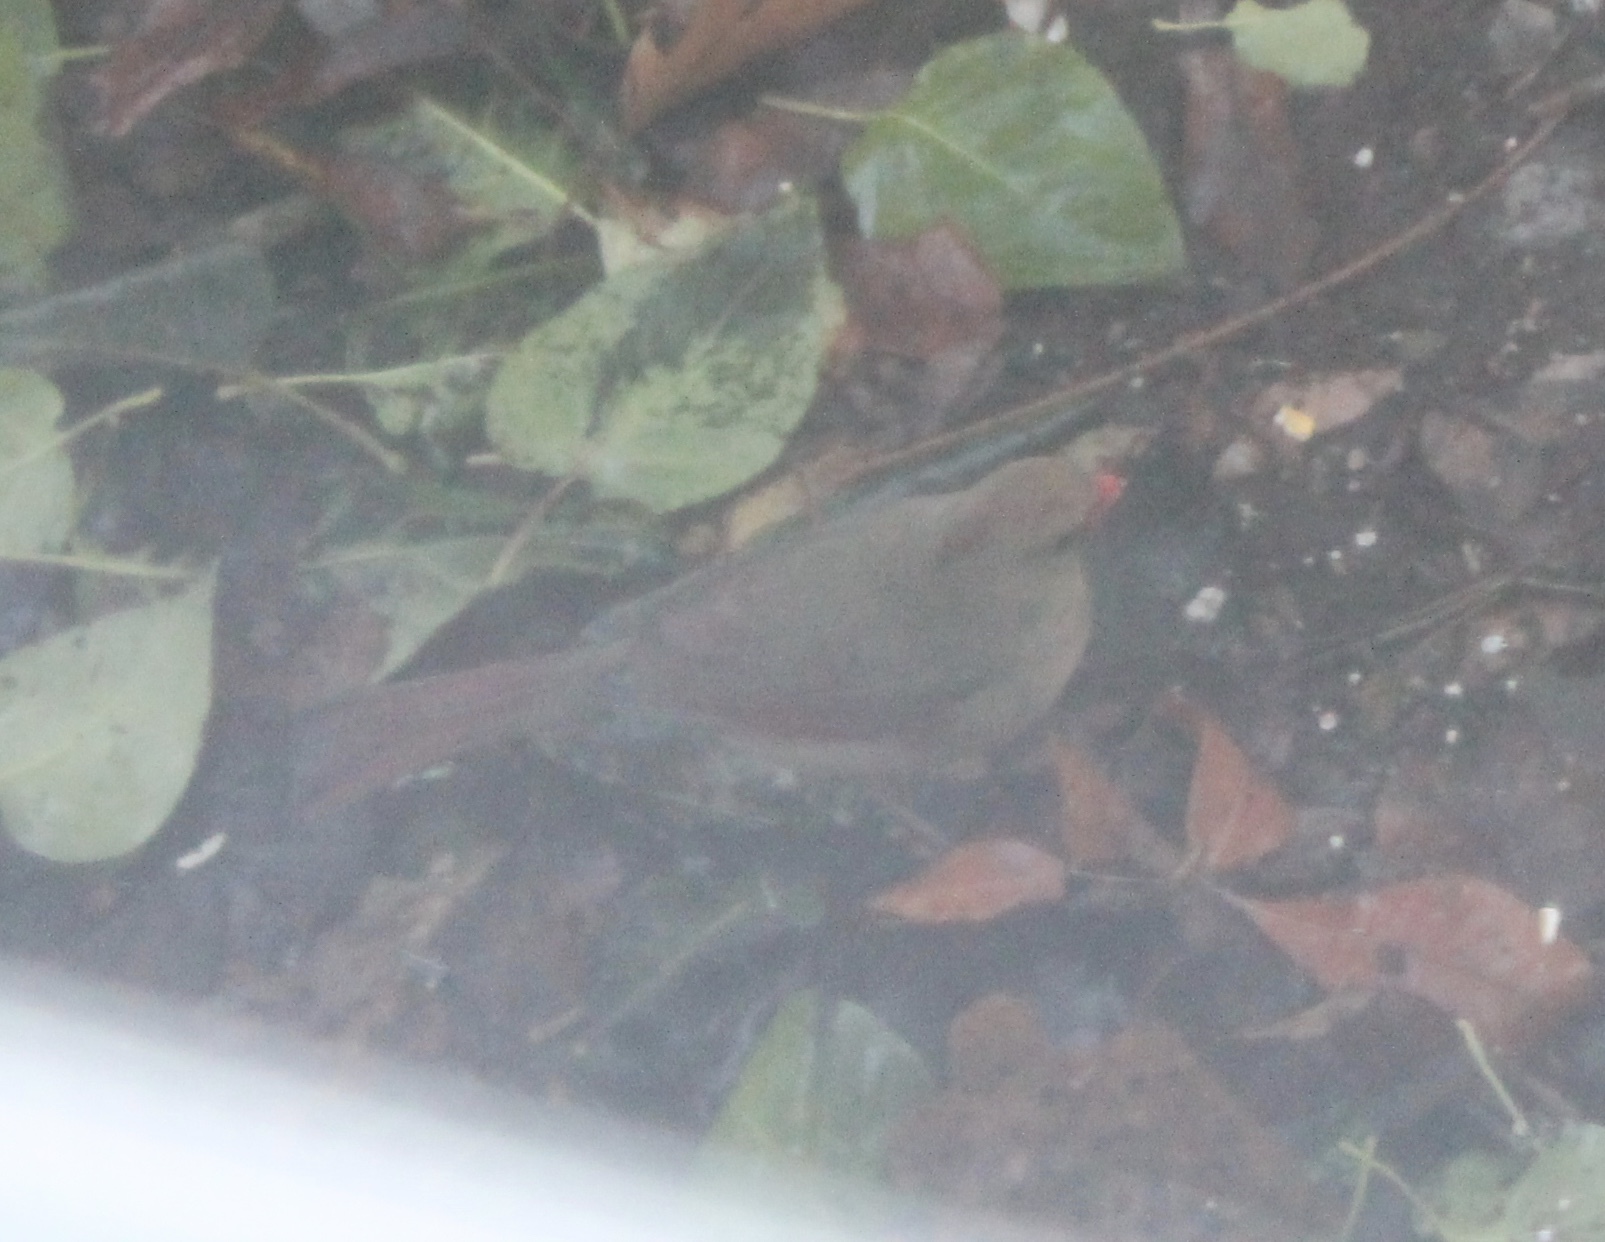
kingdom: Animalia
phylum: Chordata
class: Aves
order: Passeriformes
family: Cardinalidae
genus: Cardinalis
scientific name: Cardinalis cardinalis
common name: Northern cardinal
